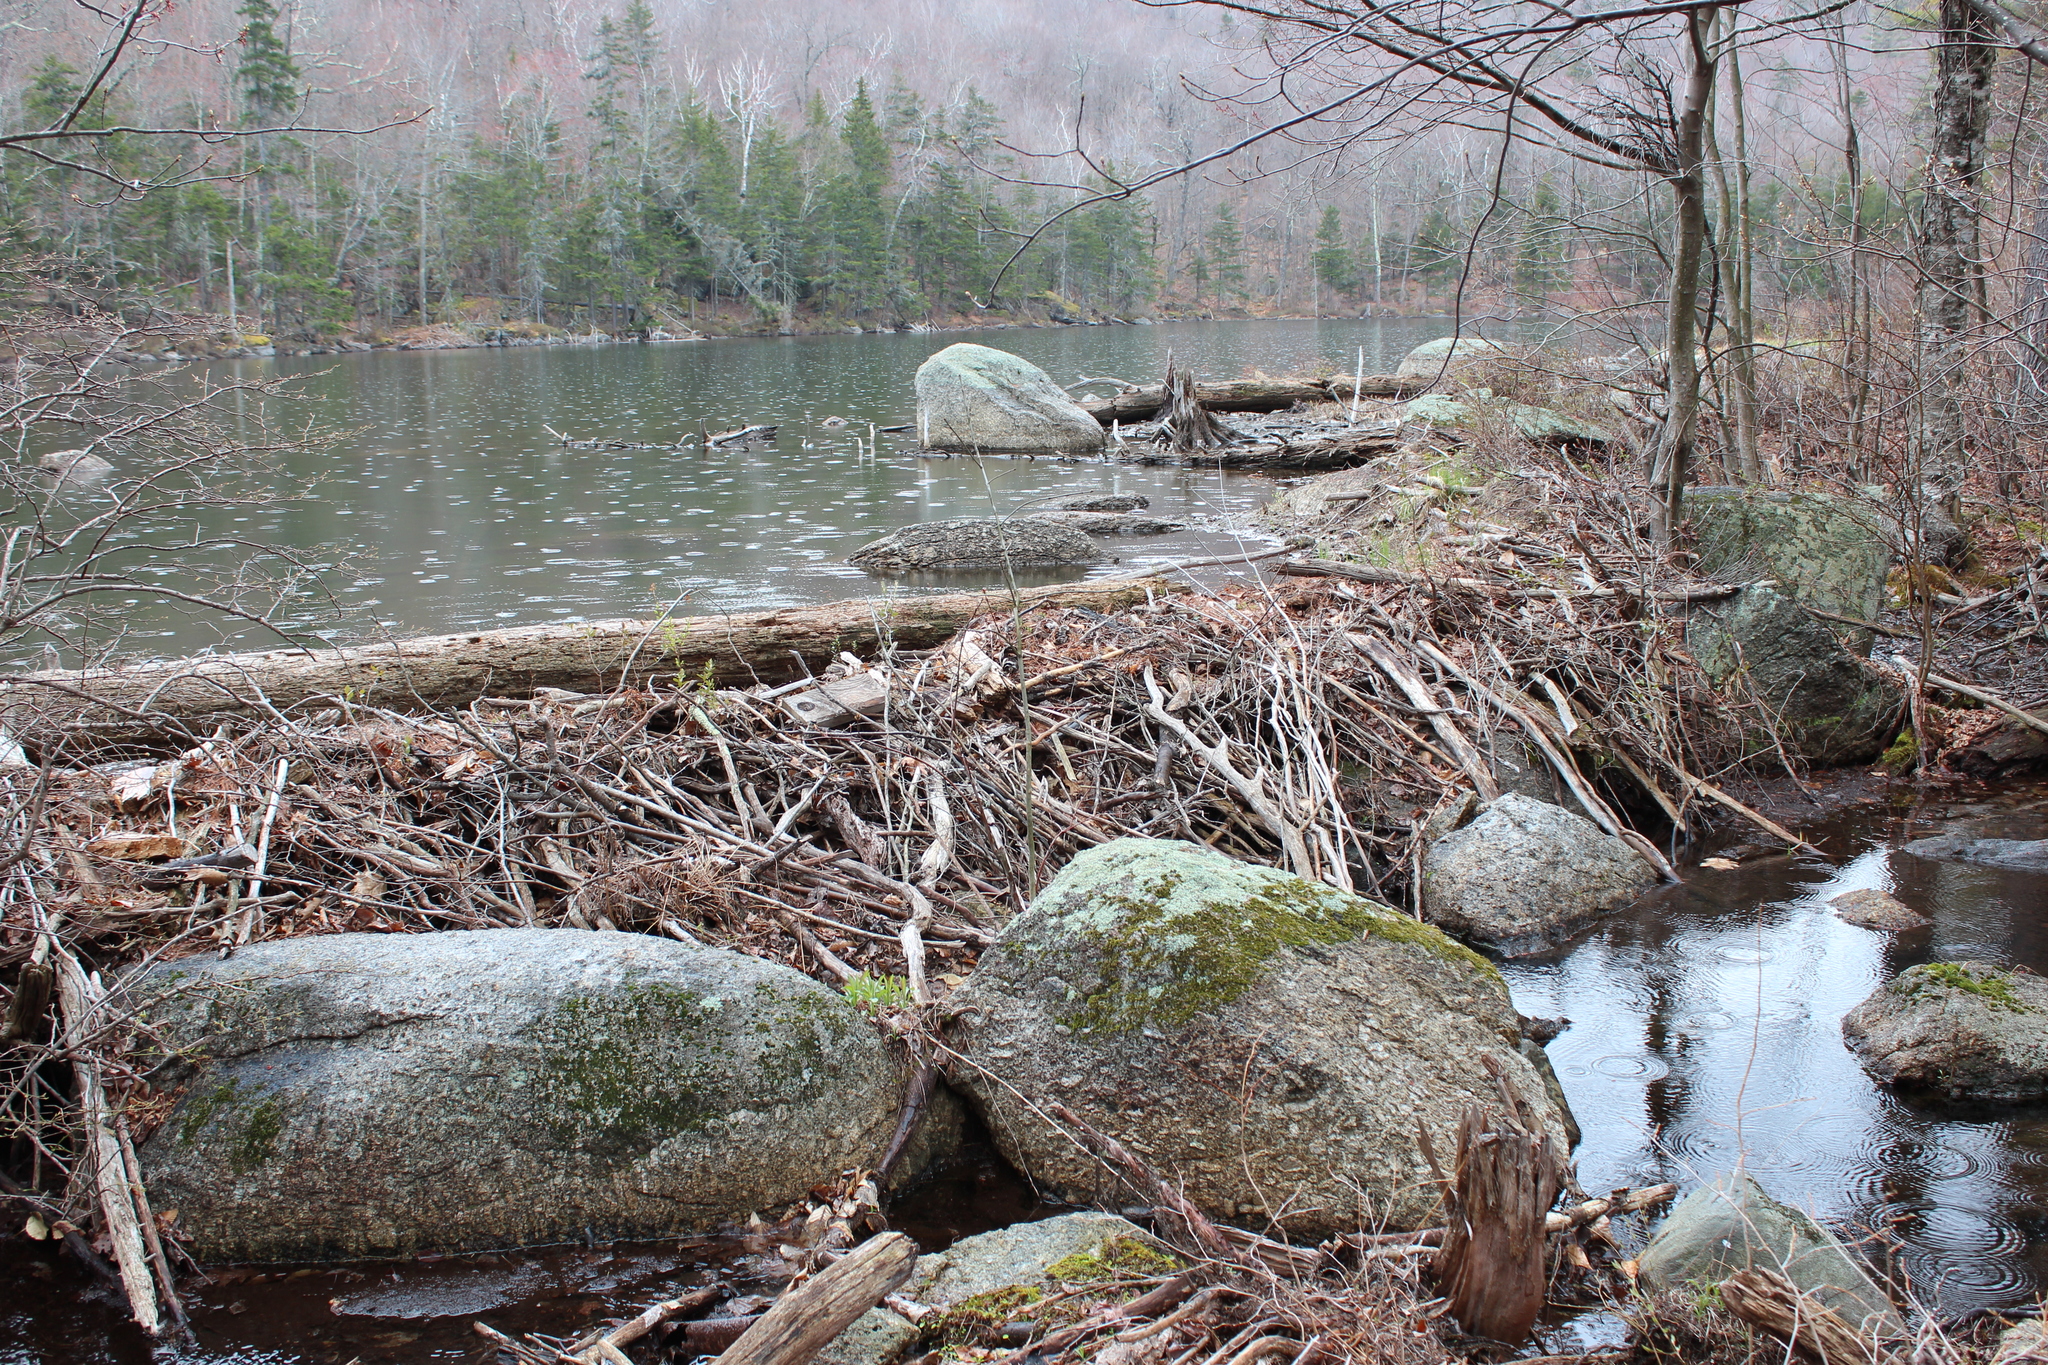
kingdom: Animalia
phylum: Chordata
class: Mammalia
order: Rodentia
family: Castoridae
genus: Castor
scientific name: Castor canadensis
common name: American beaver
